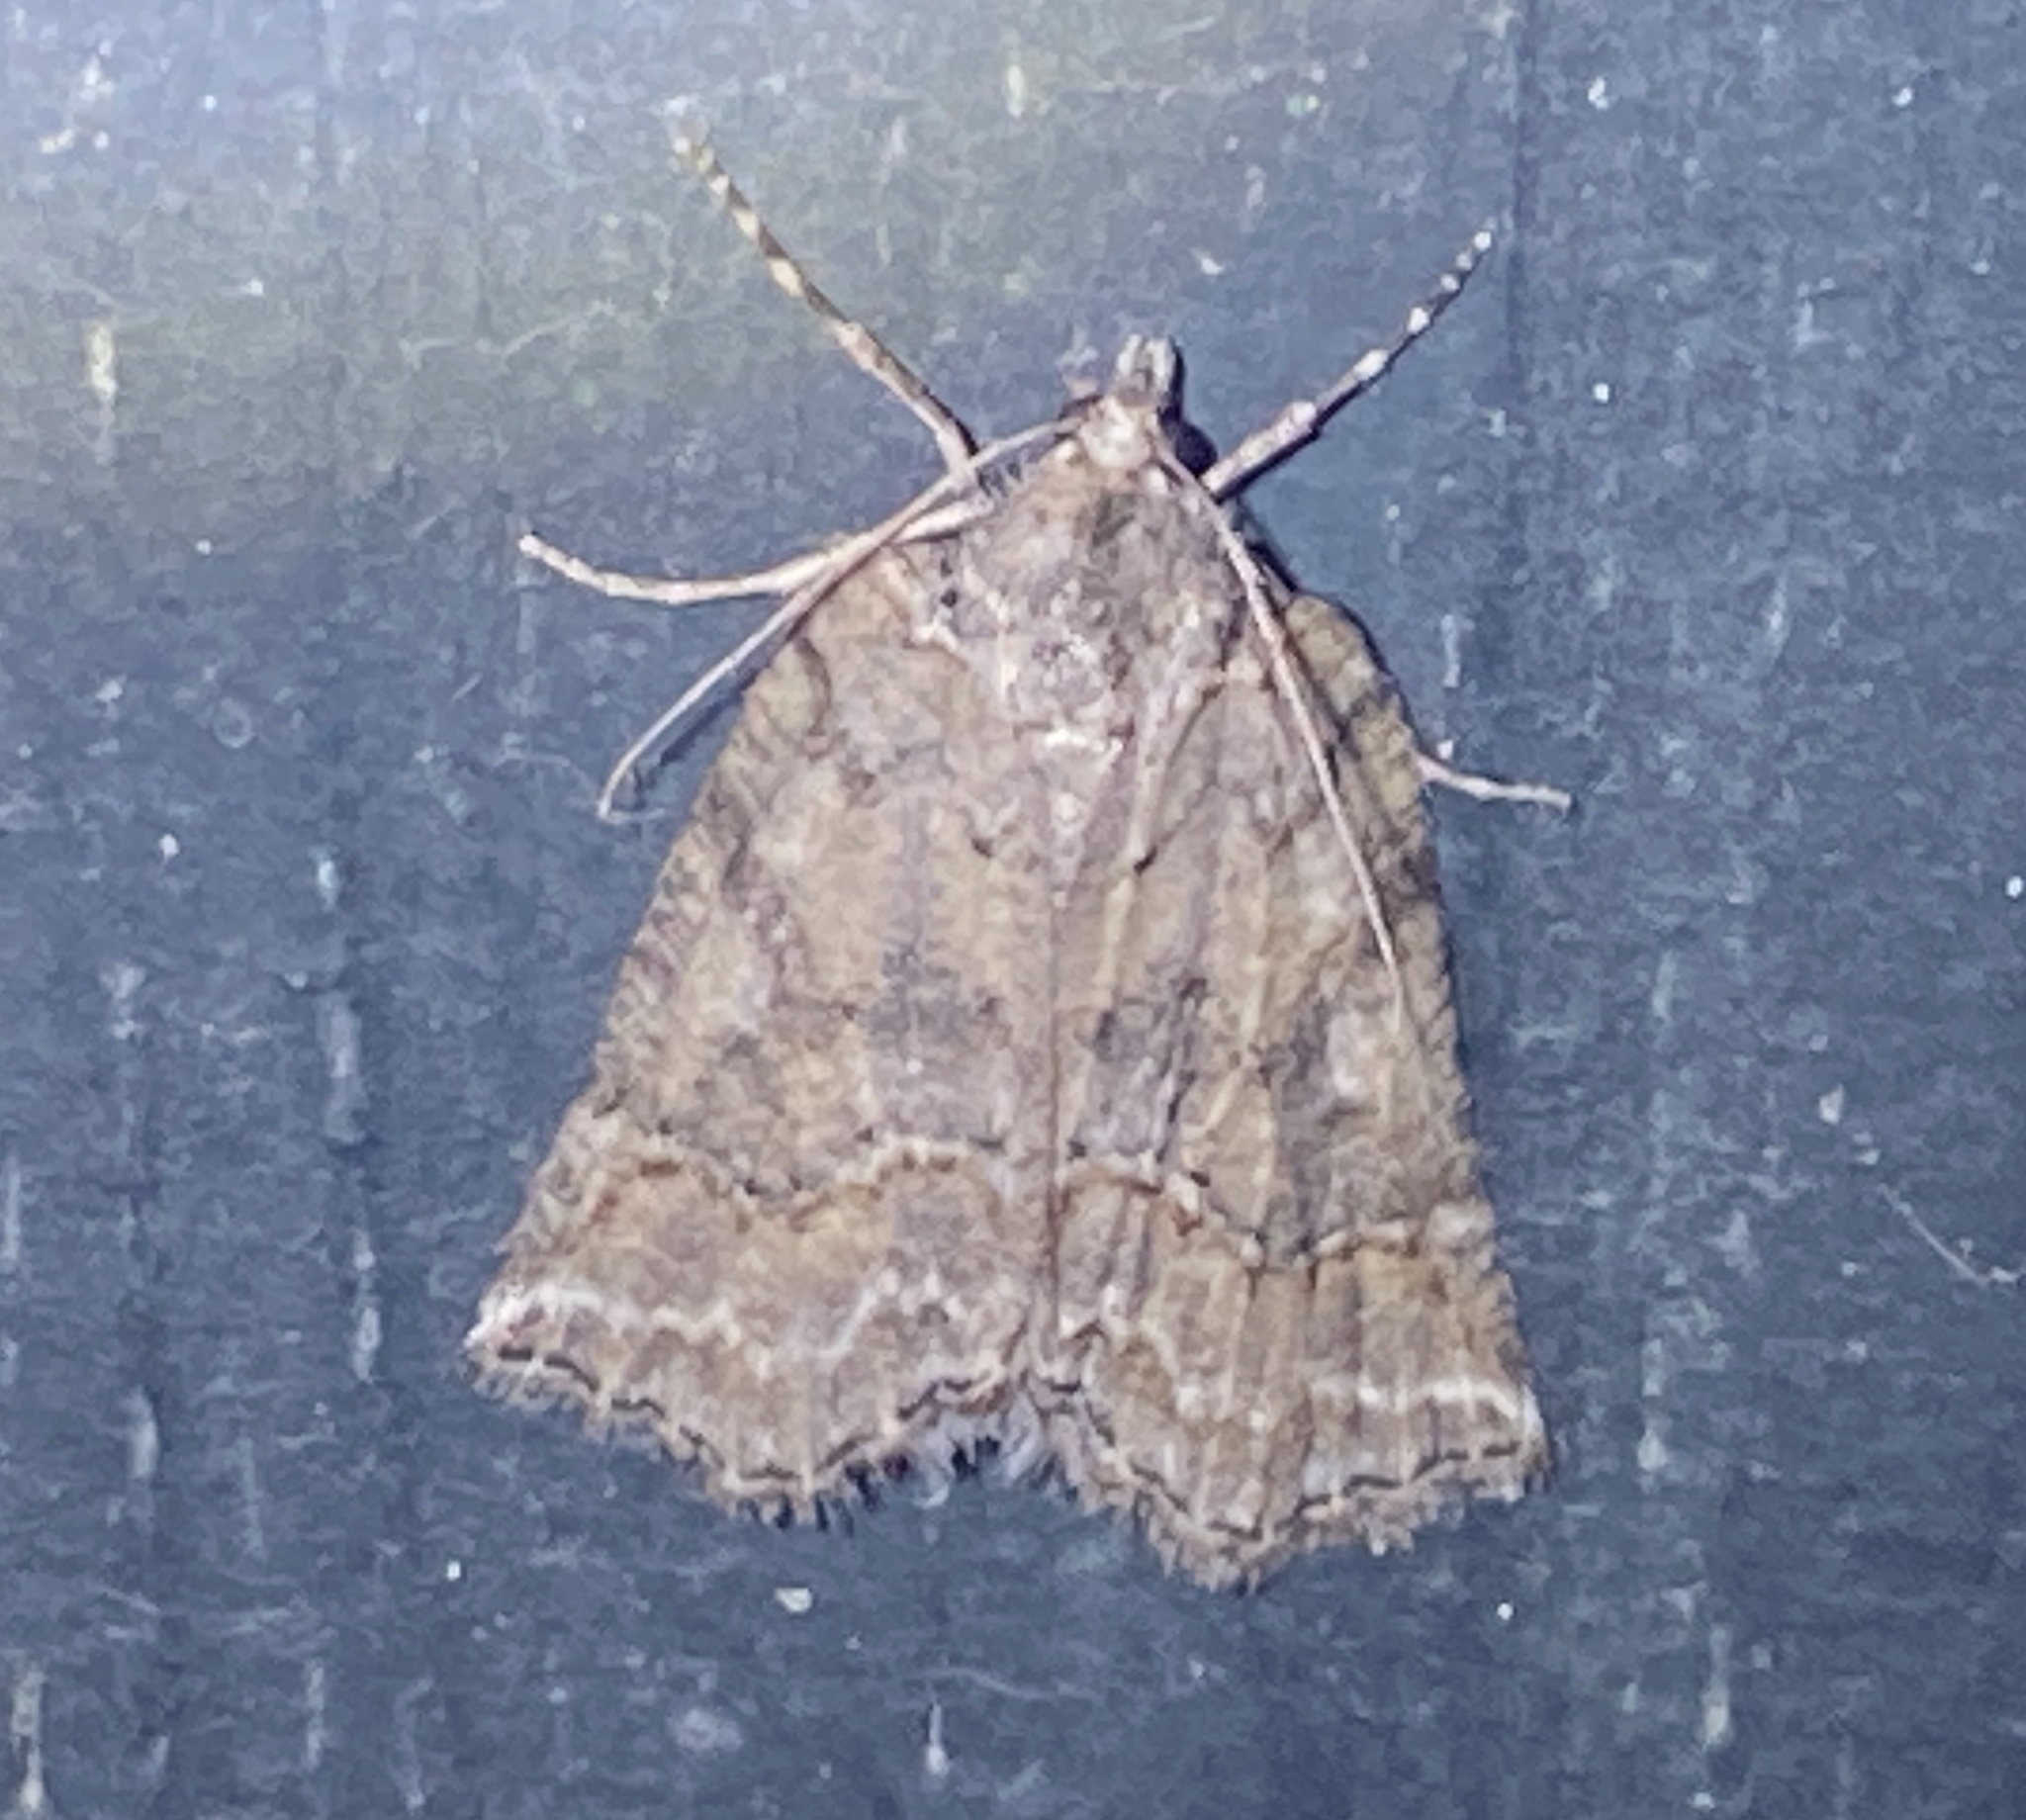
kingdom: Animalia
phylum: Arthropoda
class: Insecta
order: Lepidoptera
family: Geometridae
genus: Plesiolaea
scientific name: Plesiolaea promacha
